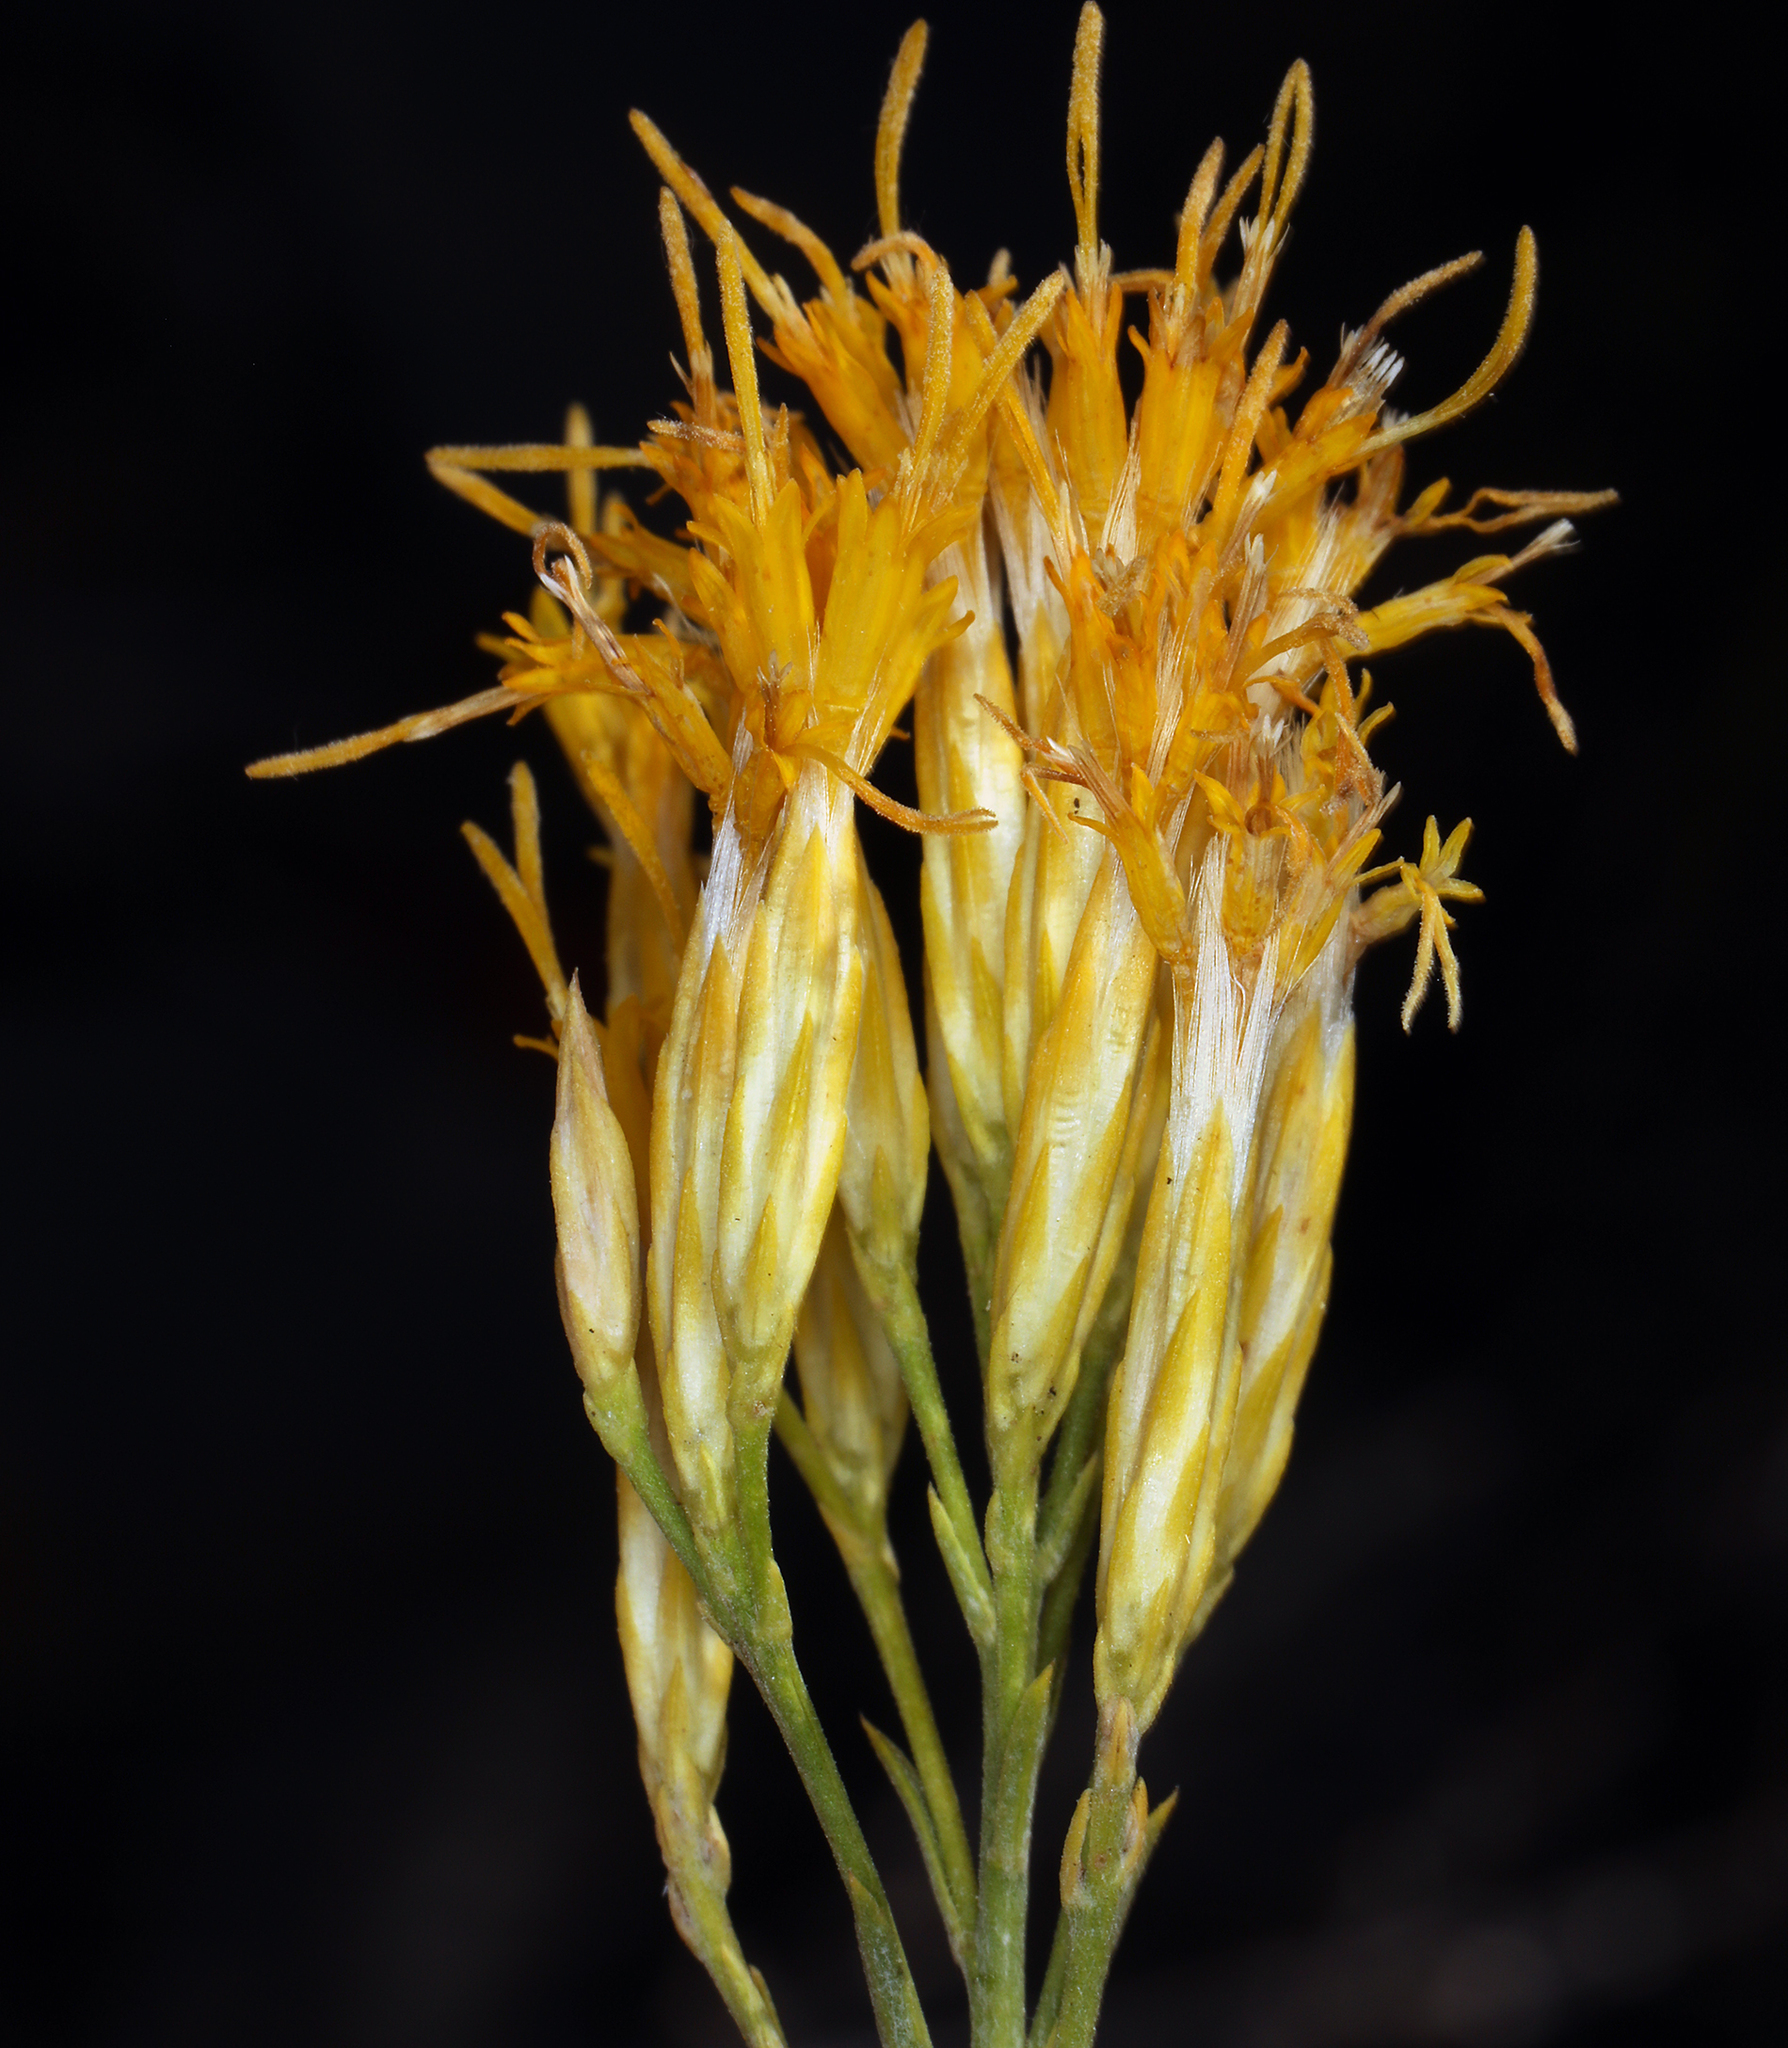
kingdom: Plantae
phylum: Tracheophyta
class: Magnoliopsida
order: Asterales
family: Asteraceae
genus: Ericameria
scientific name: Ericameria nauseosa
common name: Rubber rabbitbrush
